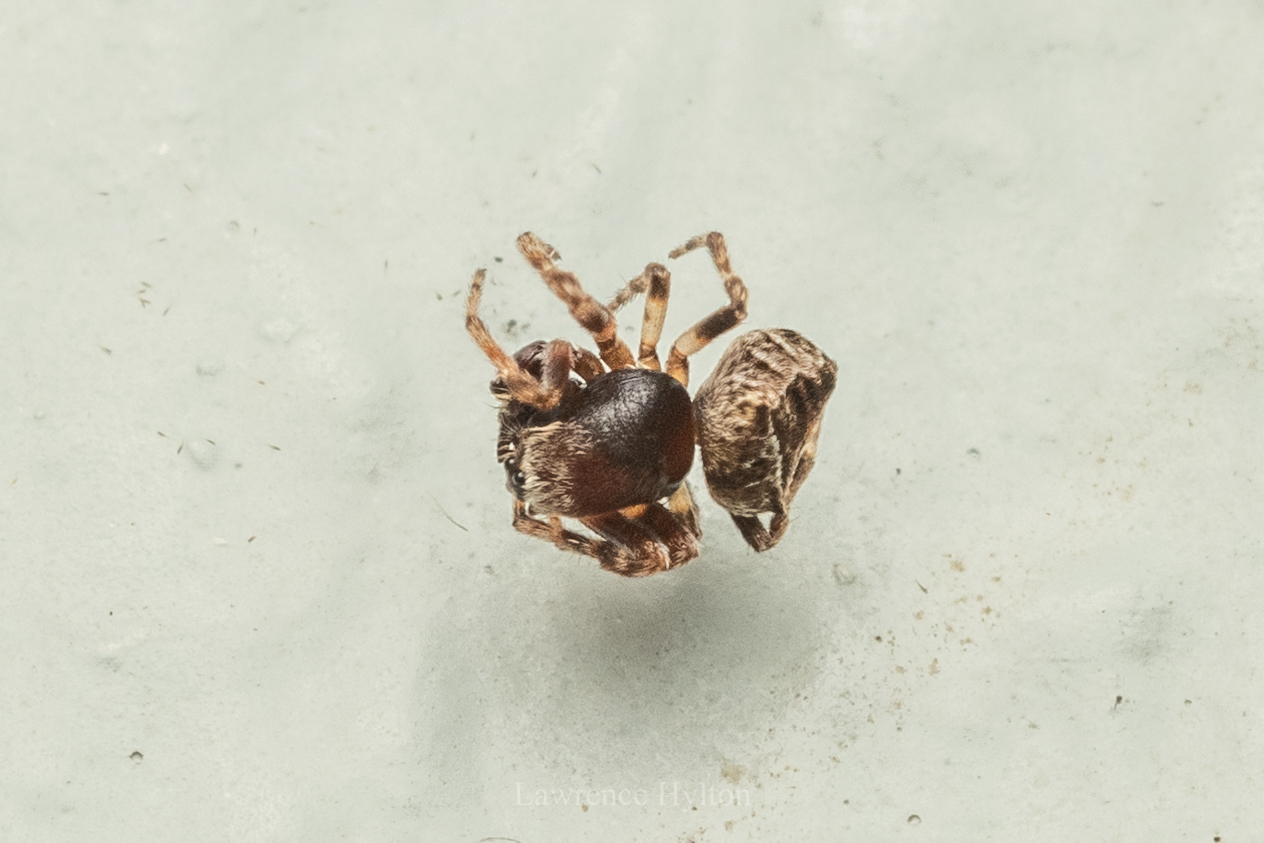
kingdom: Animalia
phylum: Arthropoda
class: Arachnida
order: Araneae
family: Araneidae
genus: Parawixia
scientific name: Parawixia dehaani
